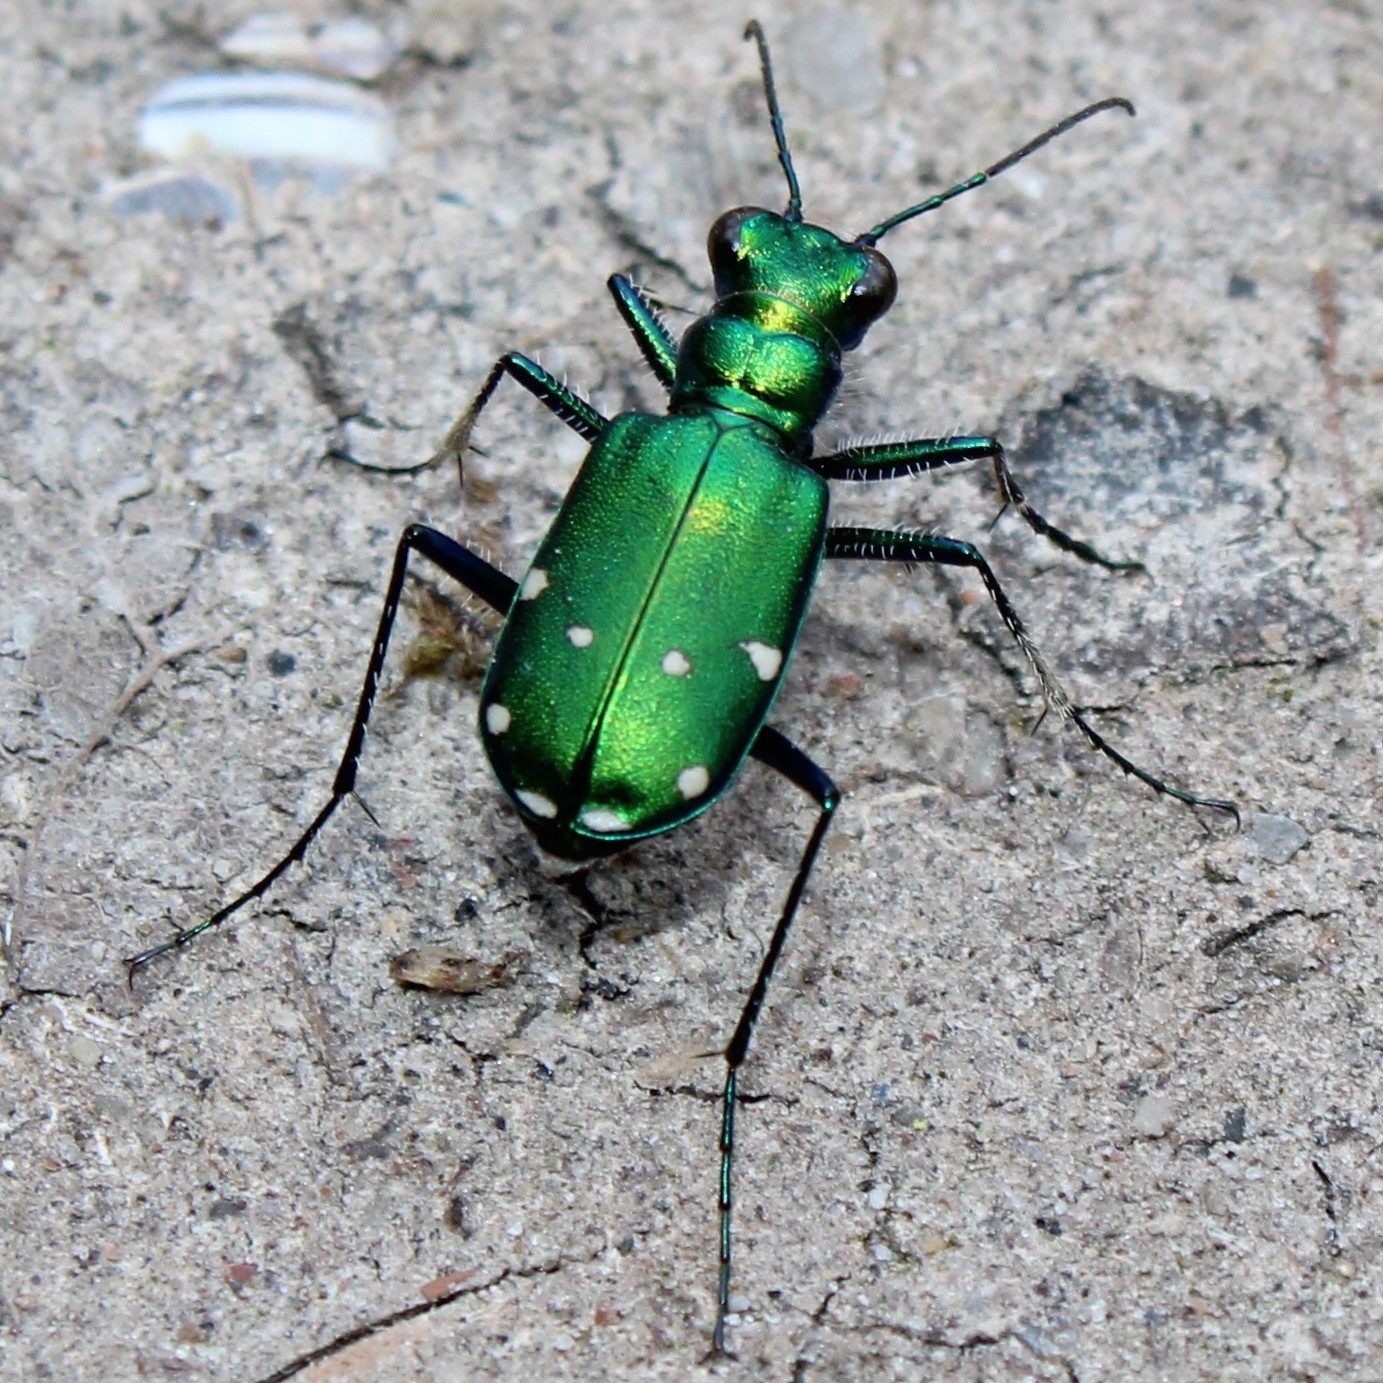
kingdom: Animalia
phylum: Arthropoda
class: Insecta
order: Coleoptera
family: Carabidae
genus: Cicindela
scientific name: Cicindela sexguttata
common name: Six-spotted tiger beetle
